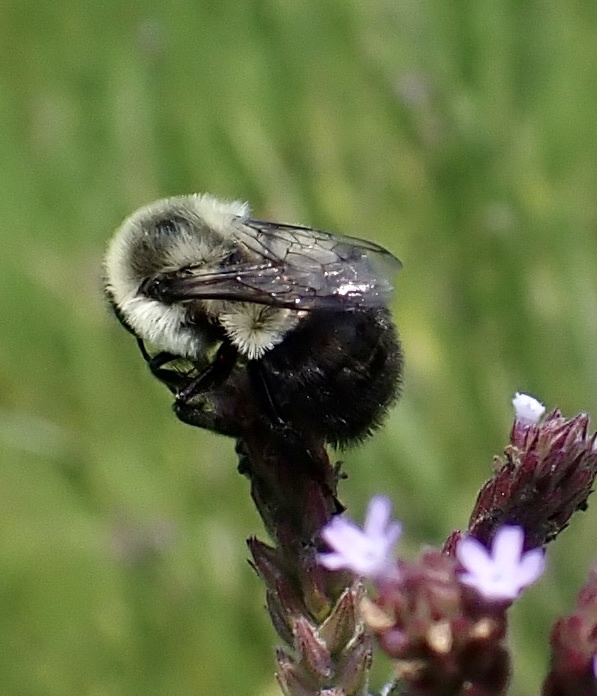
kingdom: Animalia
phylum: Arthropoda
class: Insecta
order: Hymenoptera
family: Apidae
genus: Bombus
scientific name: Bombus impatiens
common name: Common eastern bumble bee
